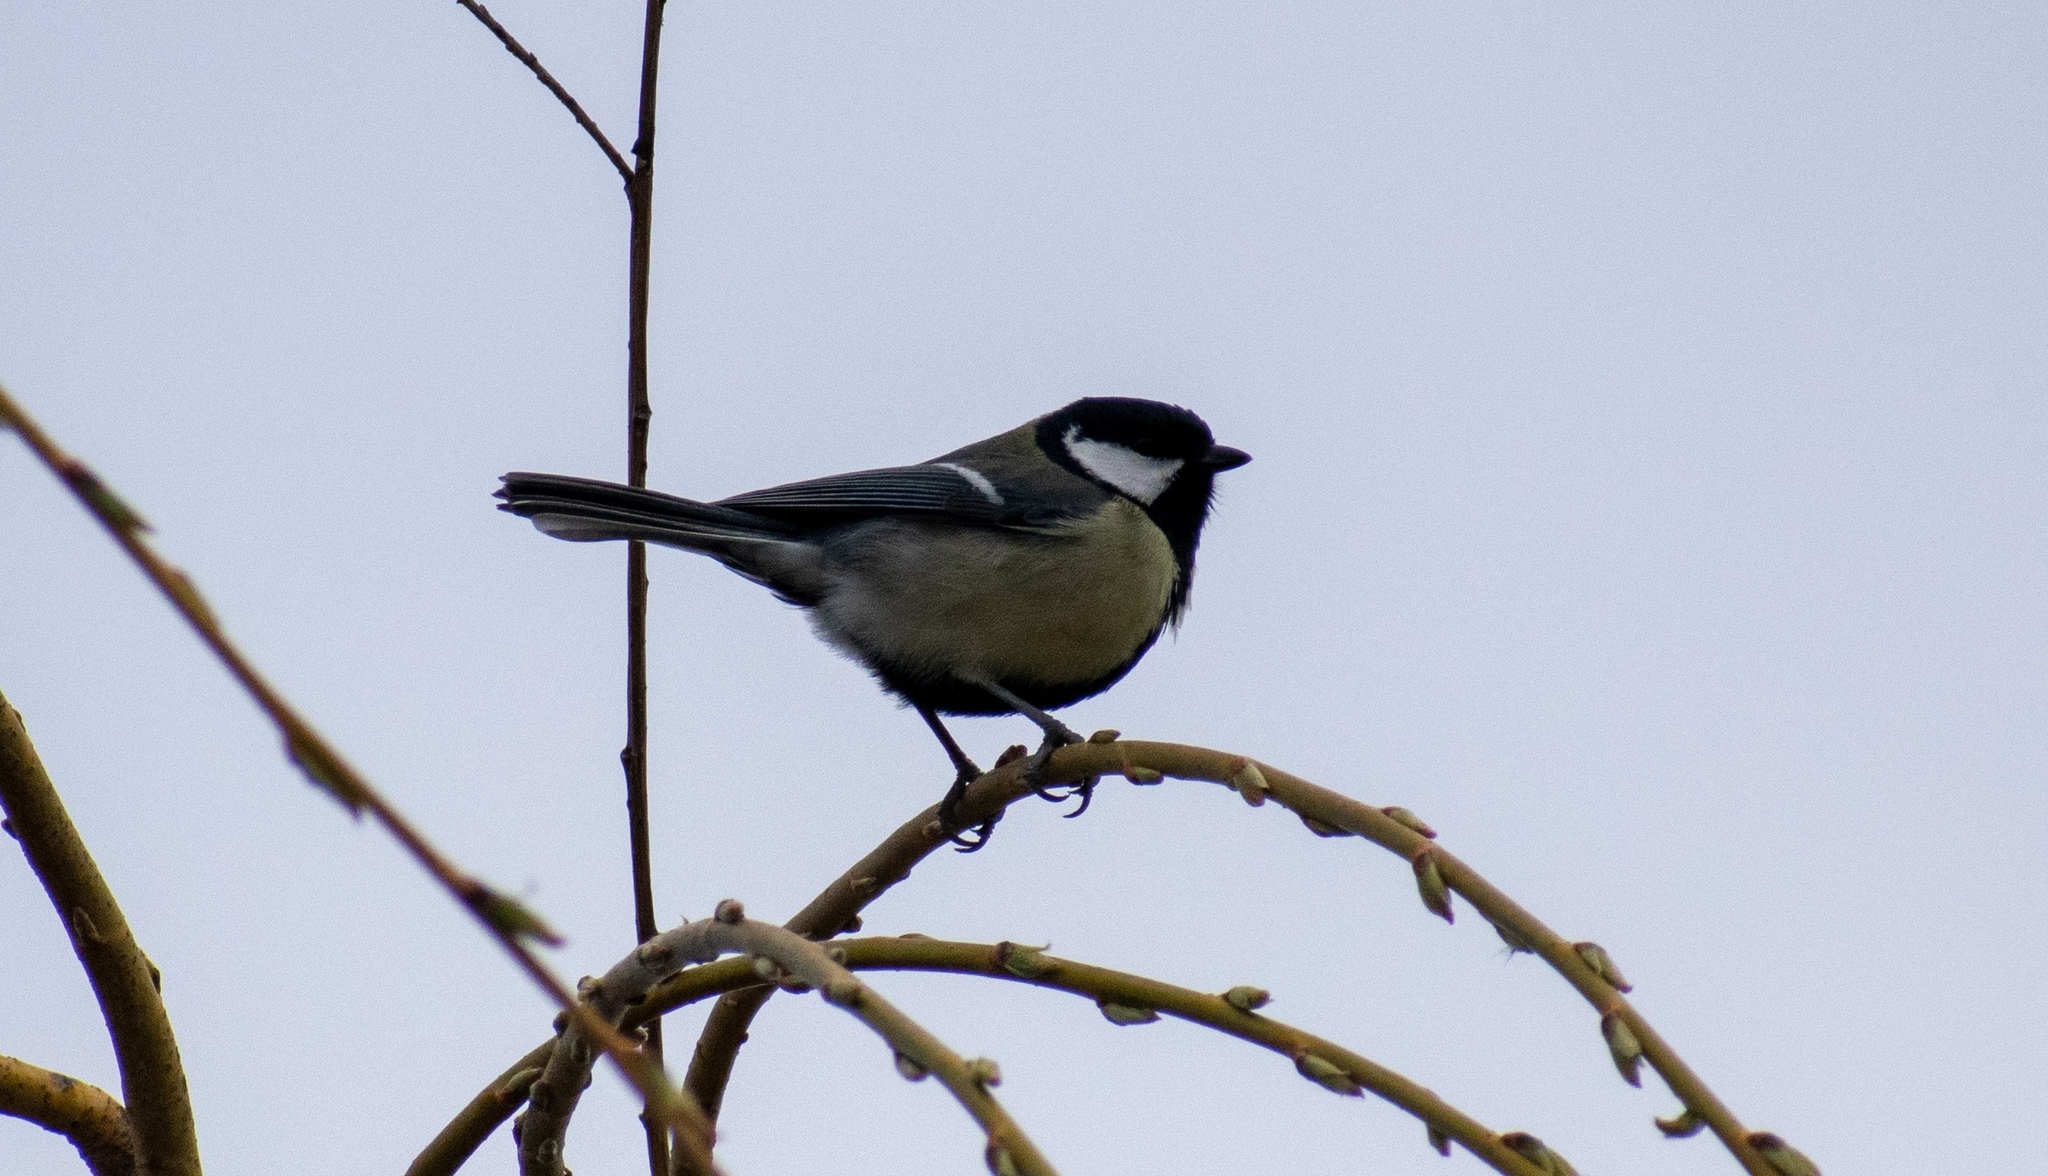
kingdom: Animalia
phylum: Chordata
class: Aves
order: Passeriformes
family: Paridae
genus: Parus
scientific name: Parus major
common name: Great tit
